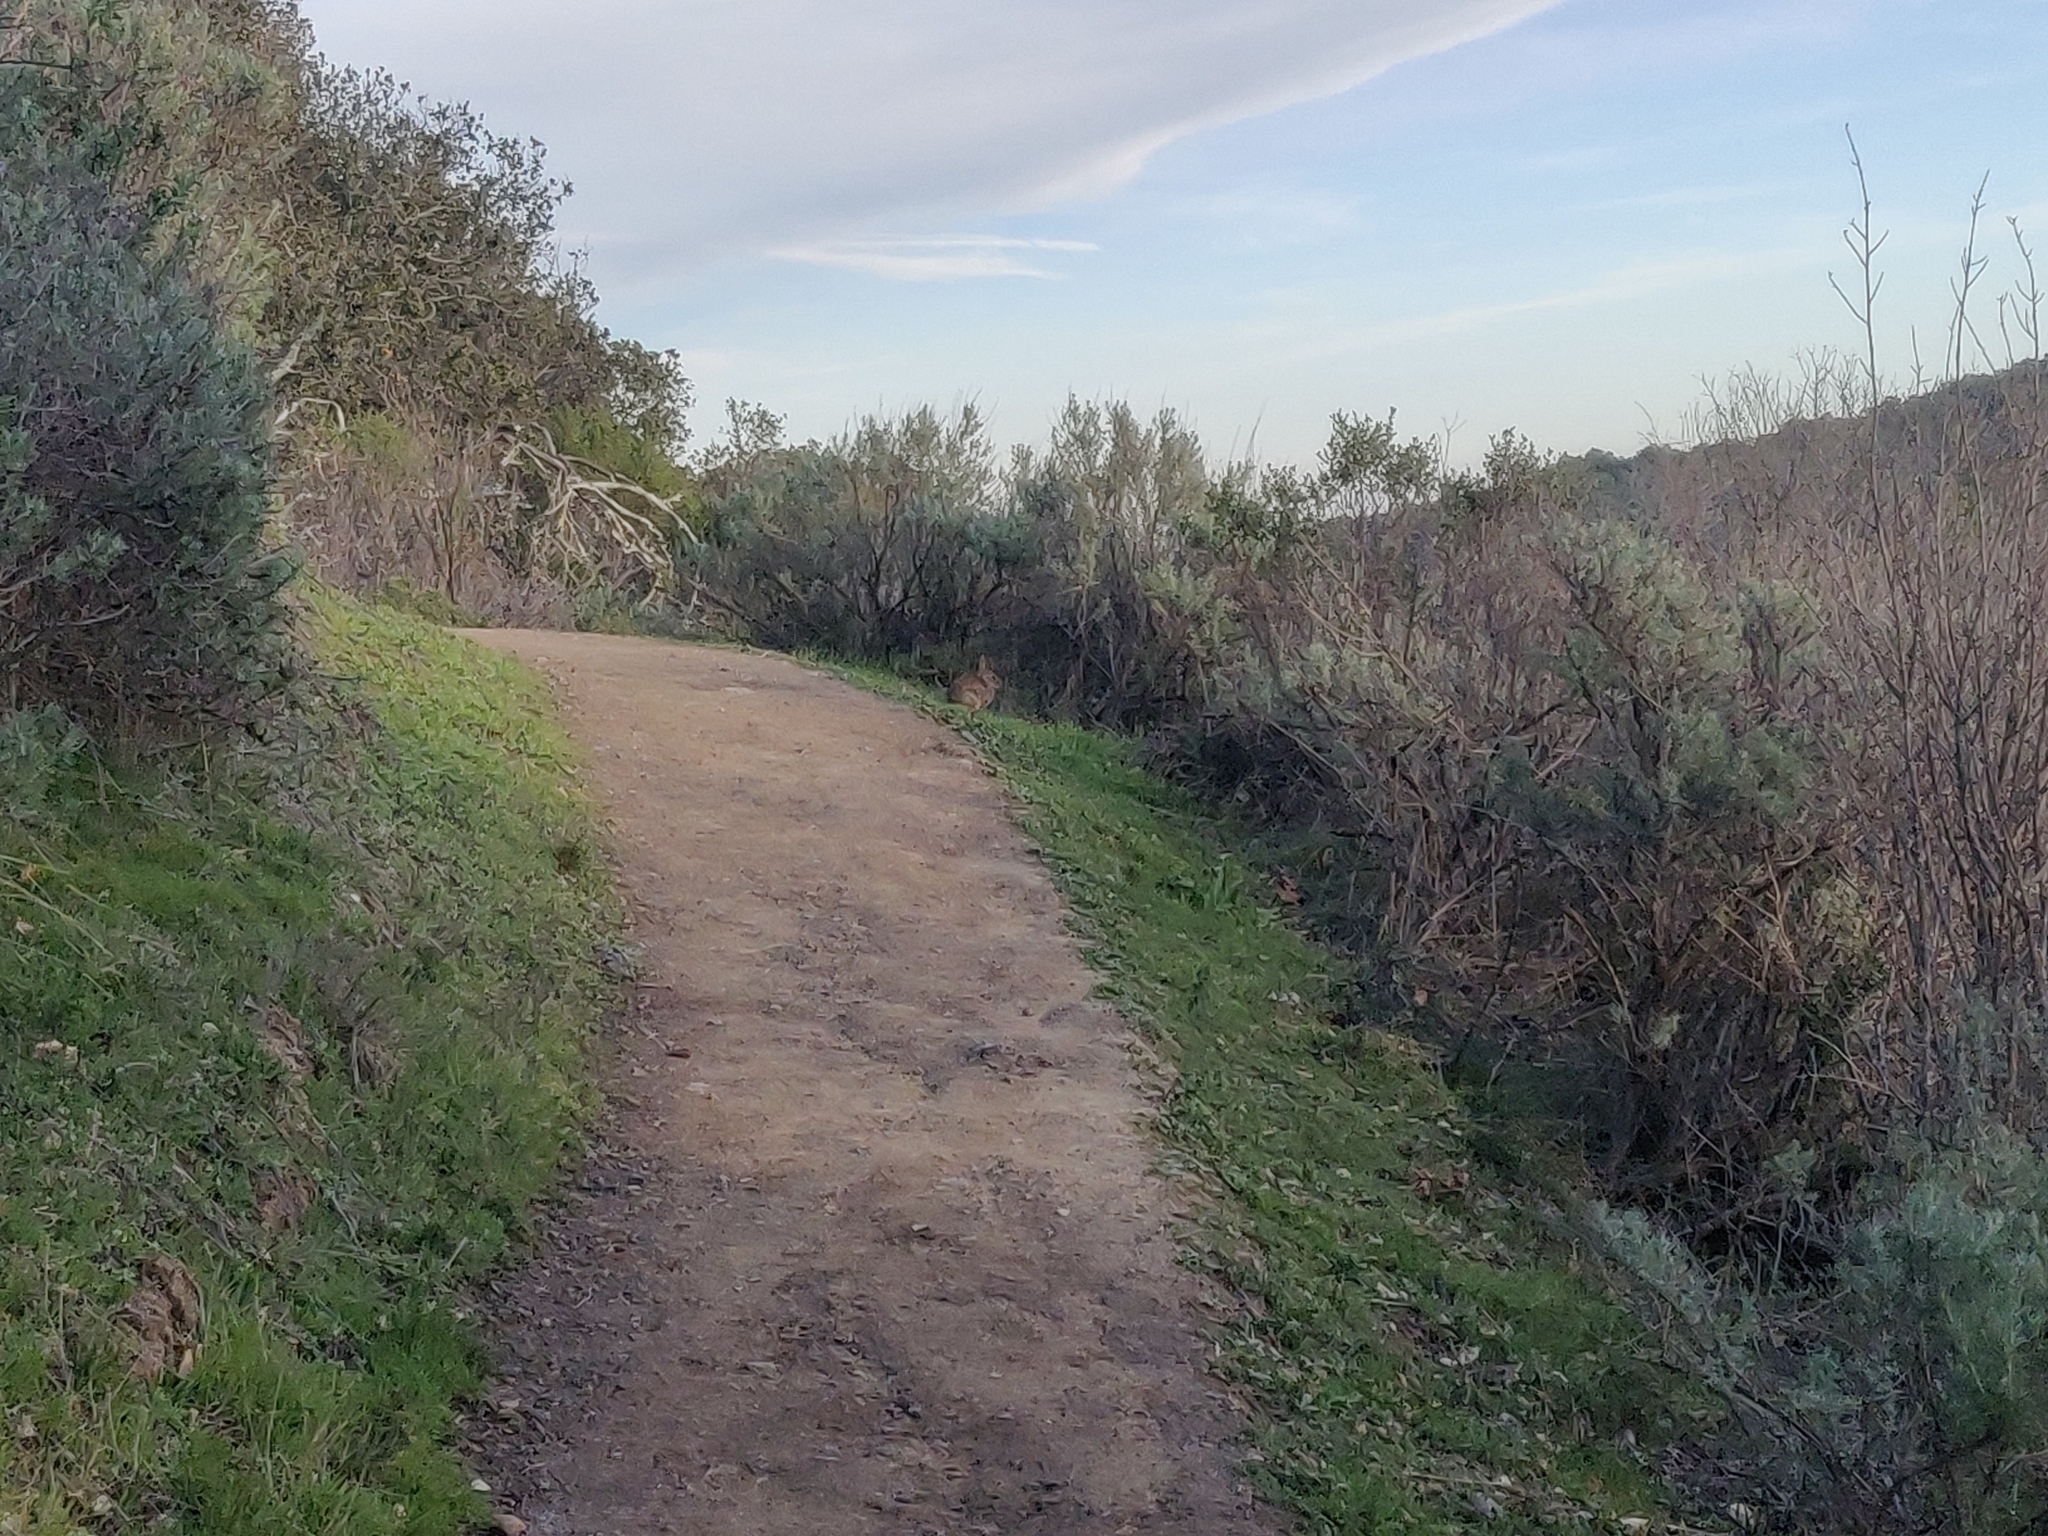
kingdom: Animalia
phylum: Chordata
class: Mammalia
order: Lagomorpha
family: Leporidae
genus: Sylvilagus
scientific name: Sylvilagus bachmani
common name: Brush rabbit
